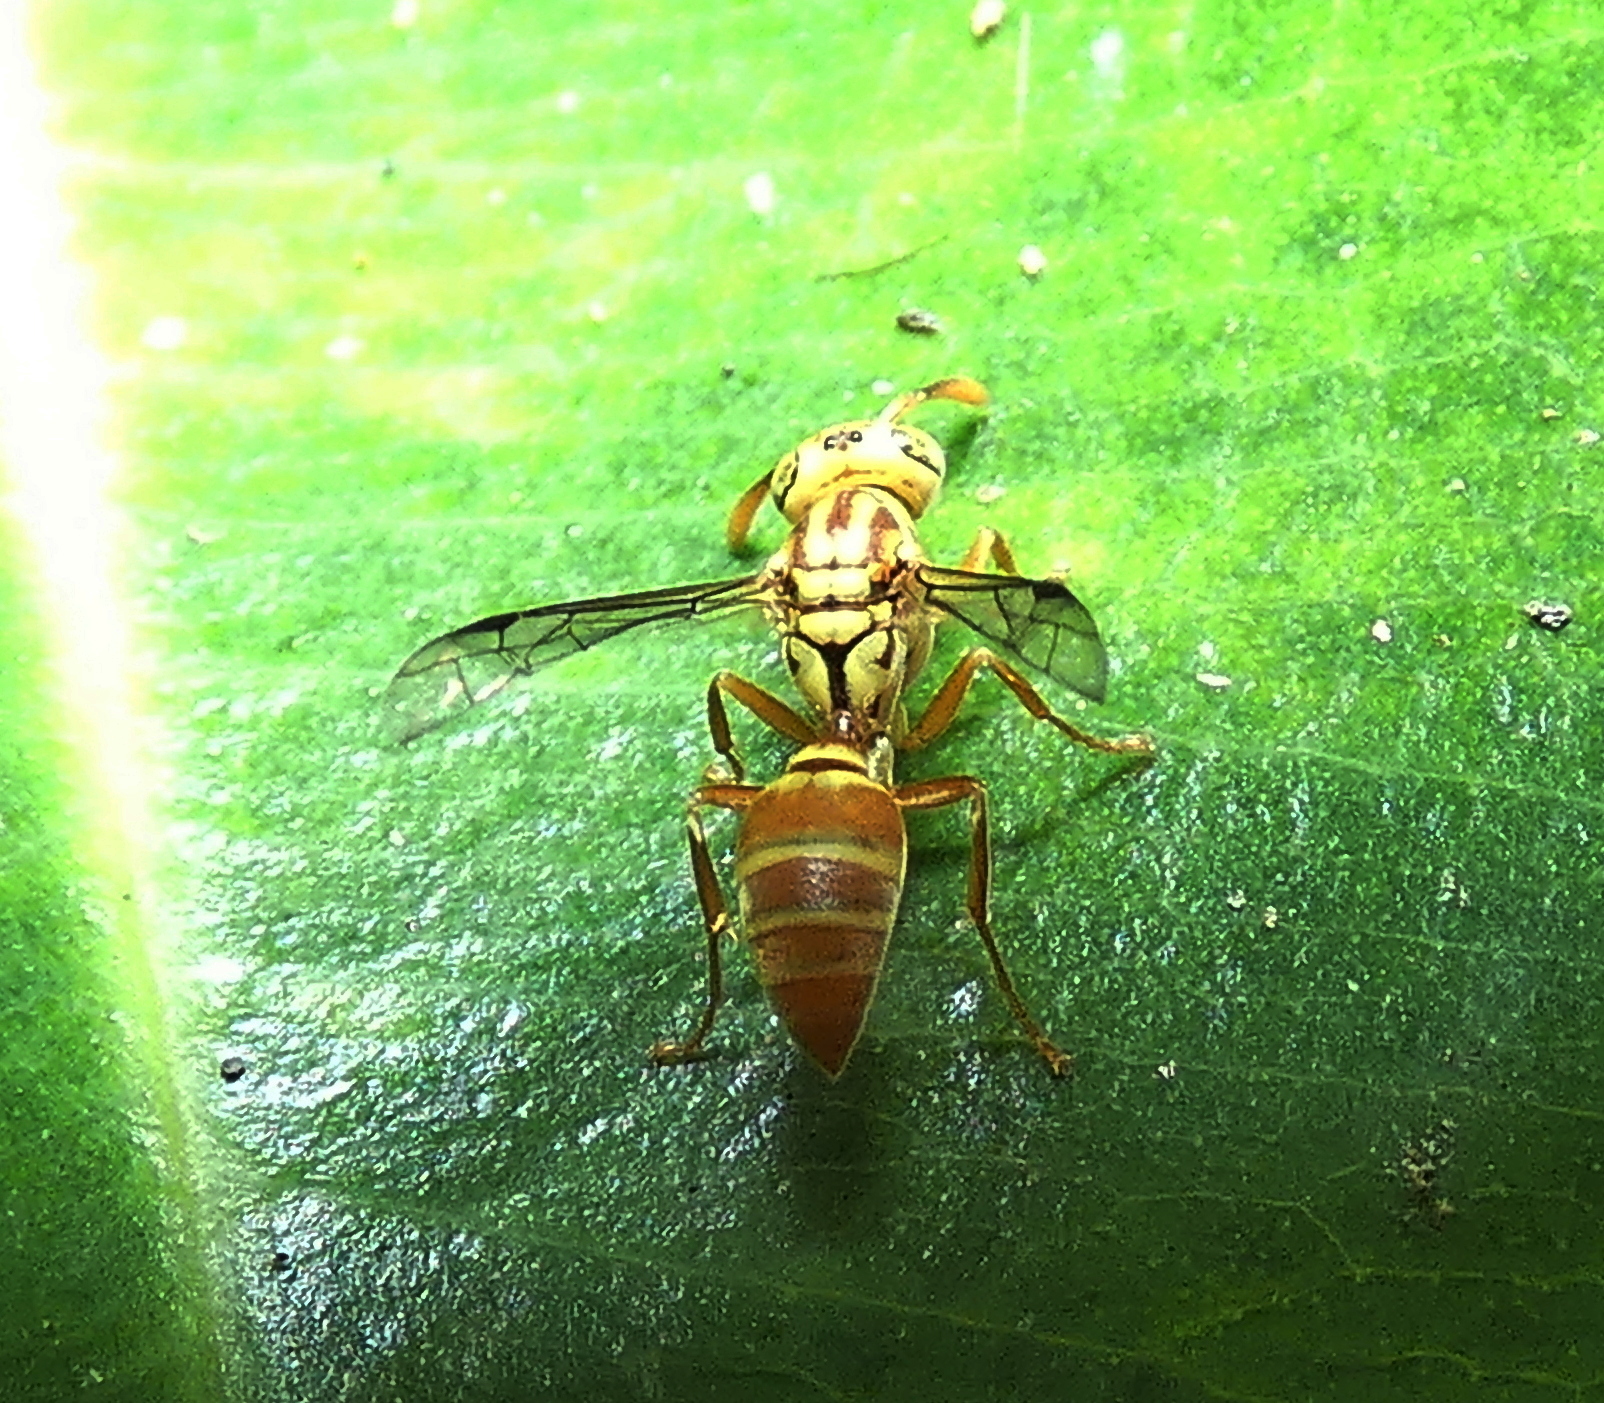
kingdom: Animalia
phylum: Arthropoda
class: Insecta
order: Hymenoptera
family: Vespidae
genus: Protopolybia
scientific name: Protopolybia potiguara
